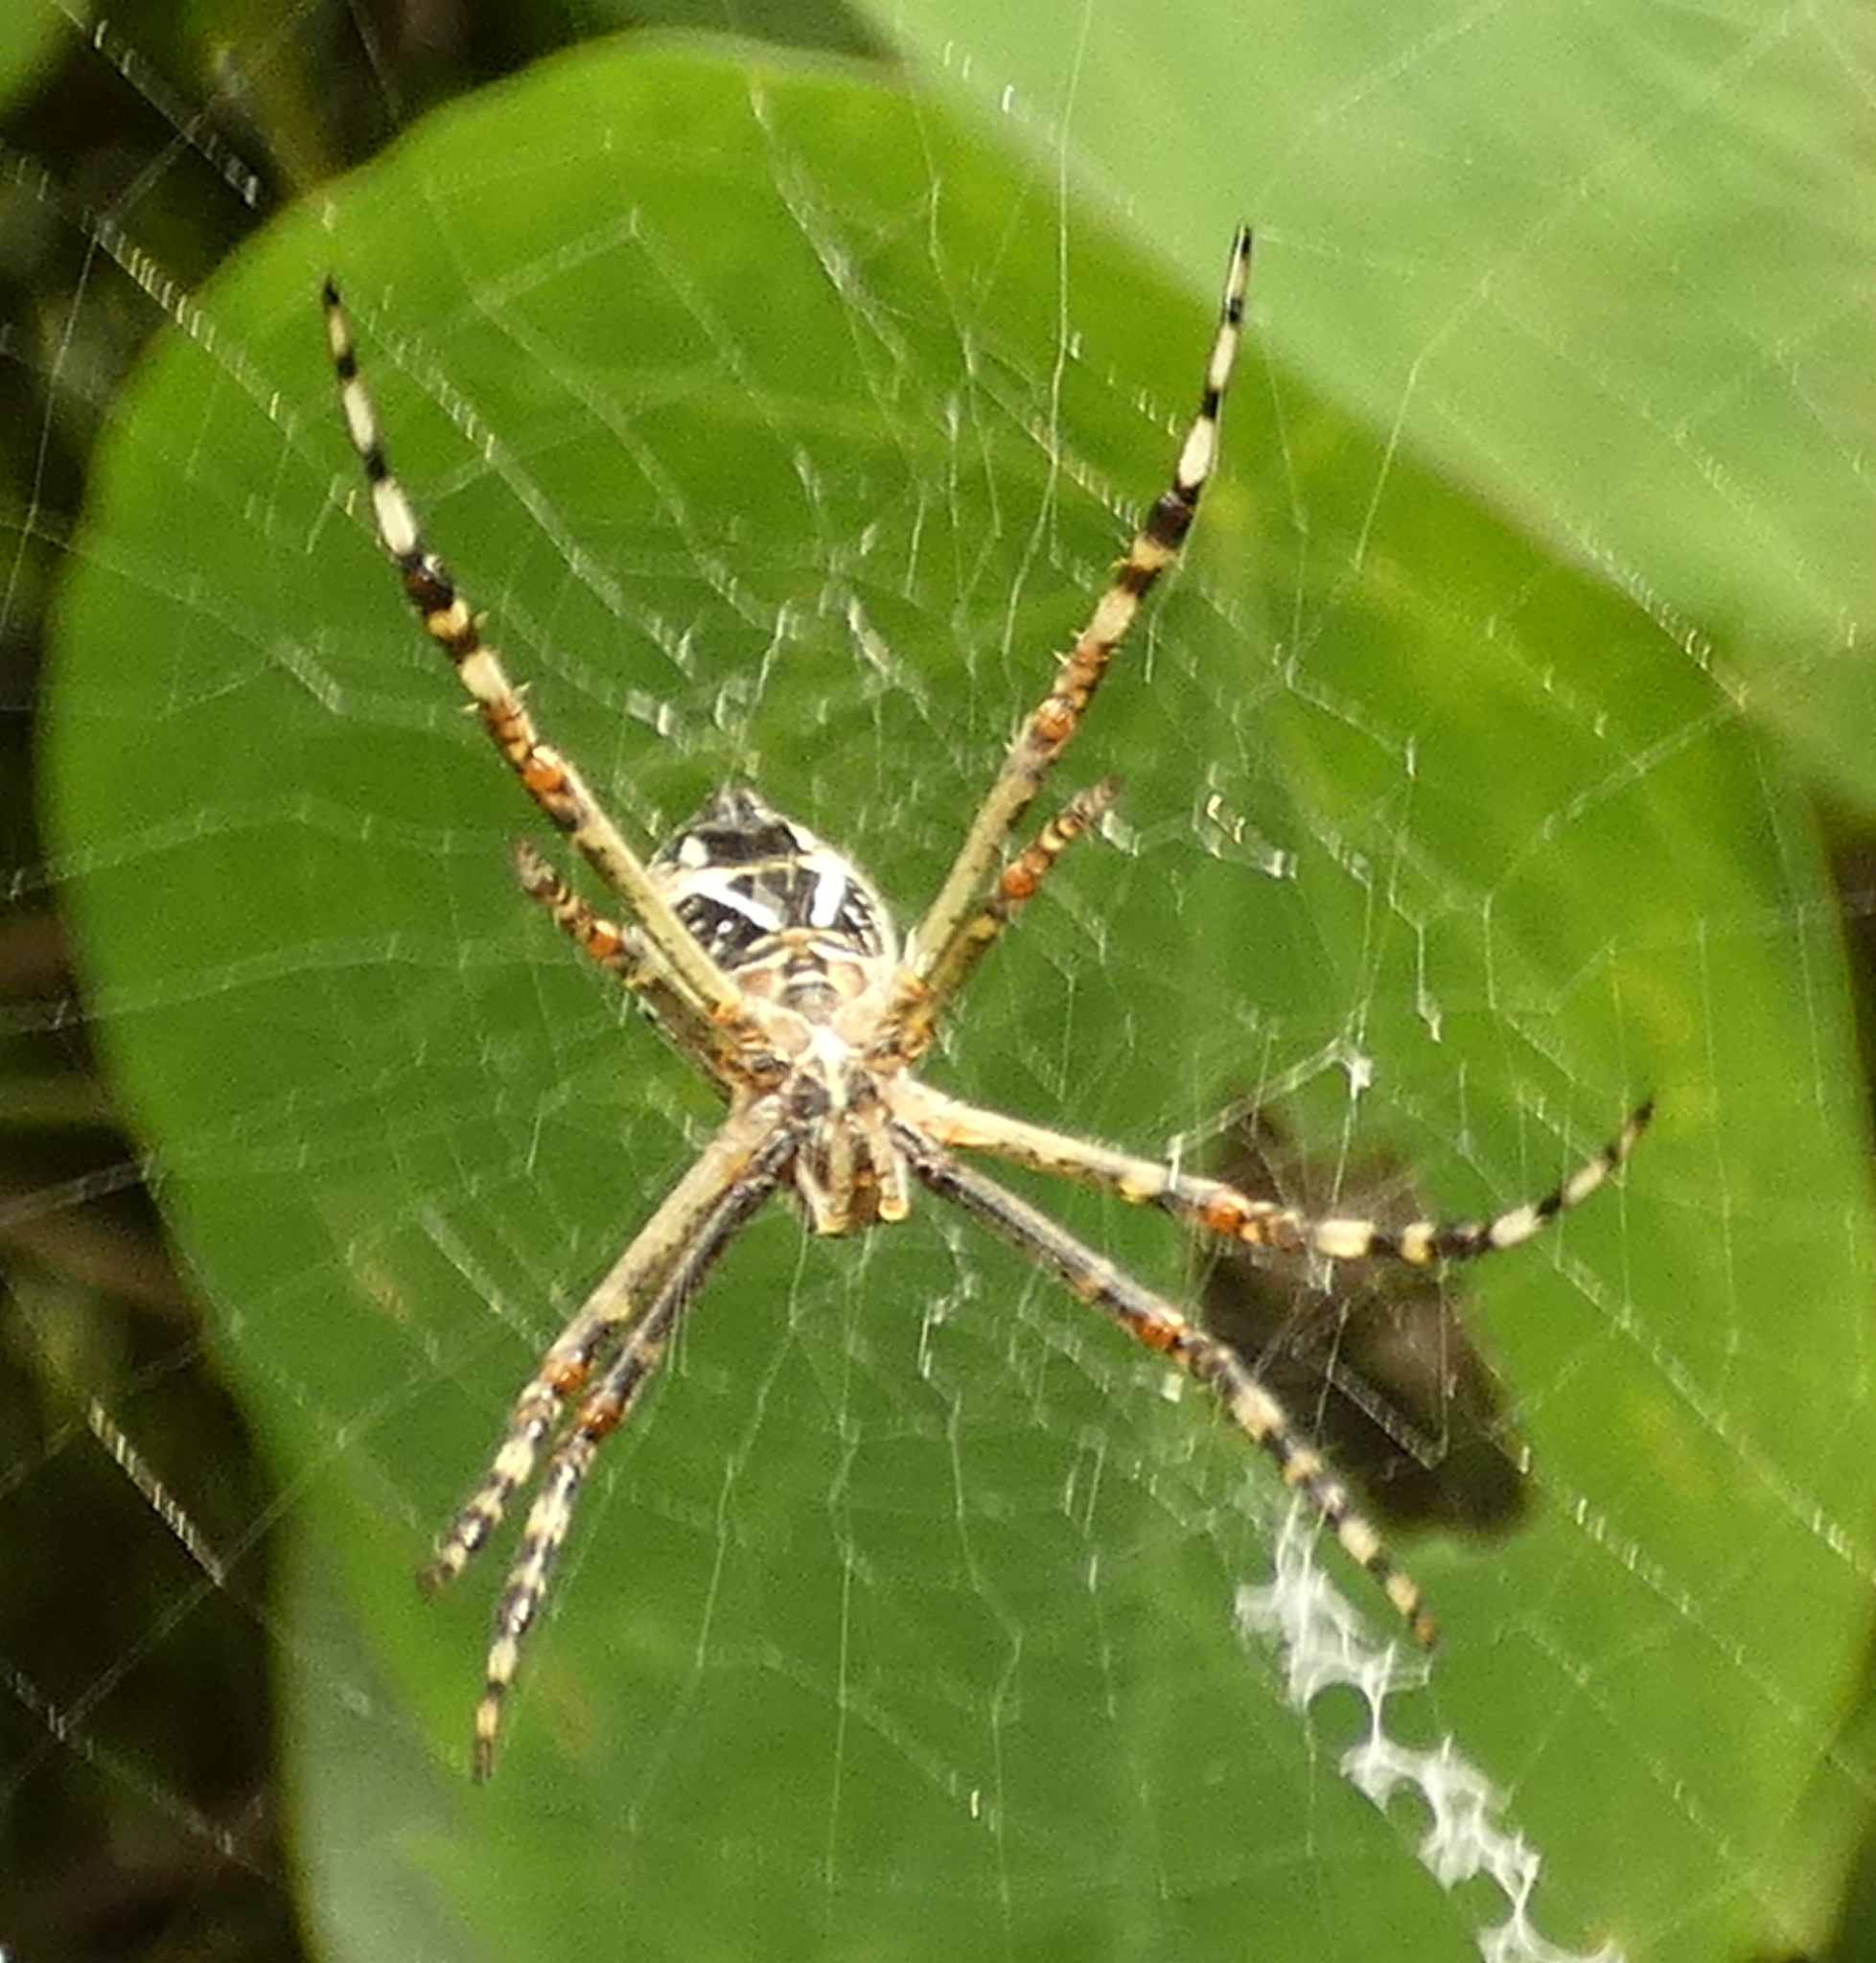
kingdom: Animalia
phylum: Arthropoda
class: Arachnida
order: Araneae
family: Araneidae
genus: Argiope
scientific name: Argiope argentata
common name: Orb weavers
